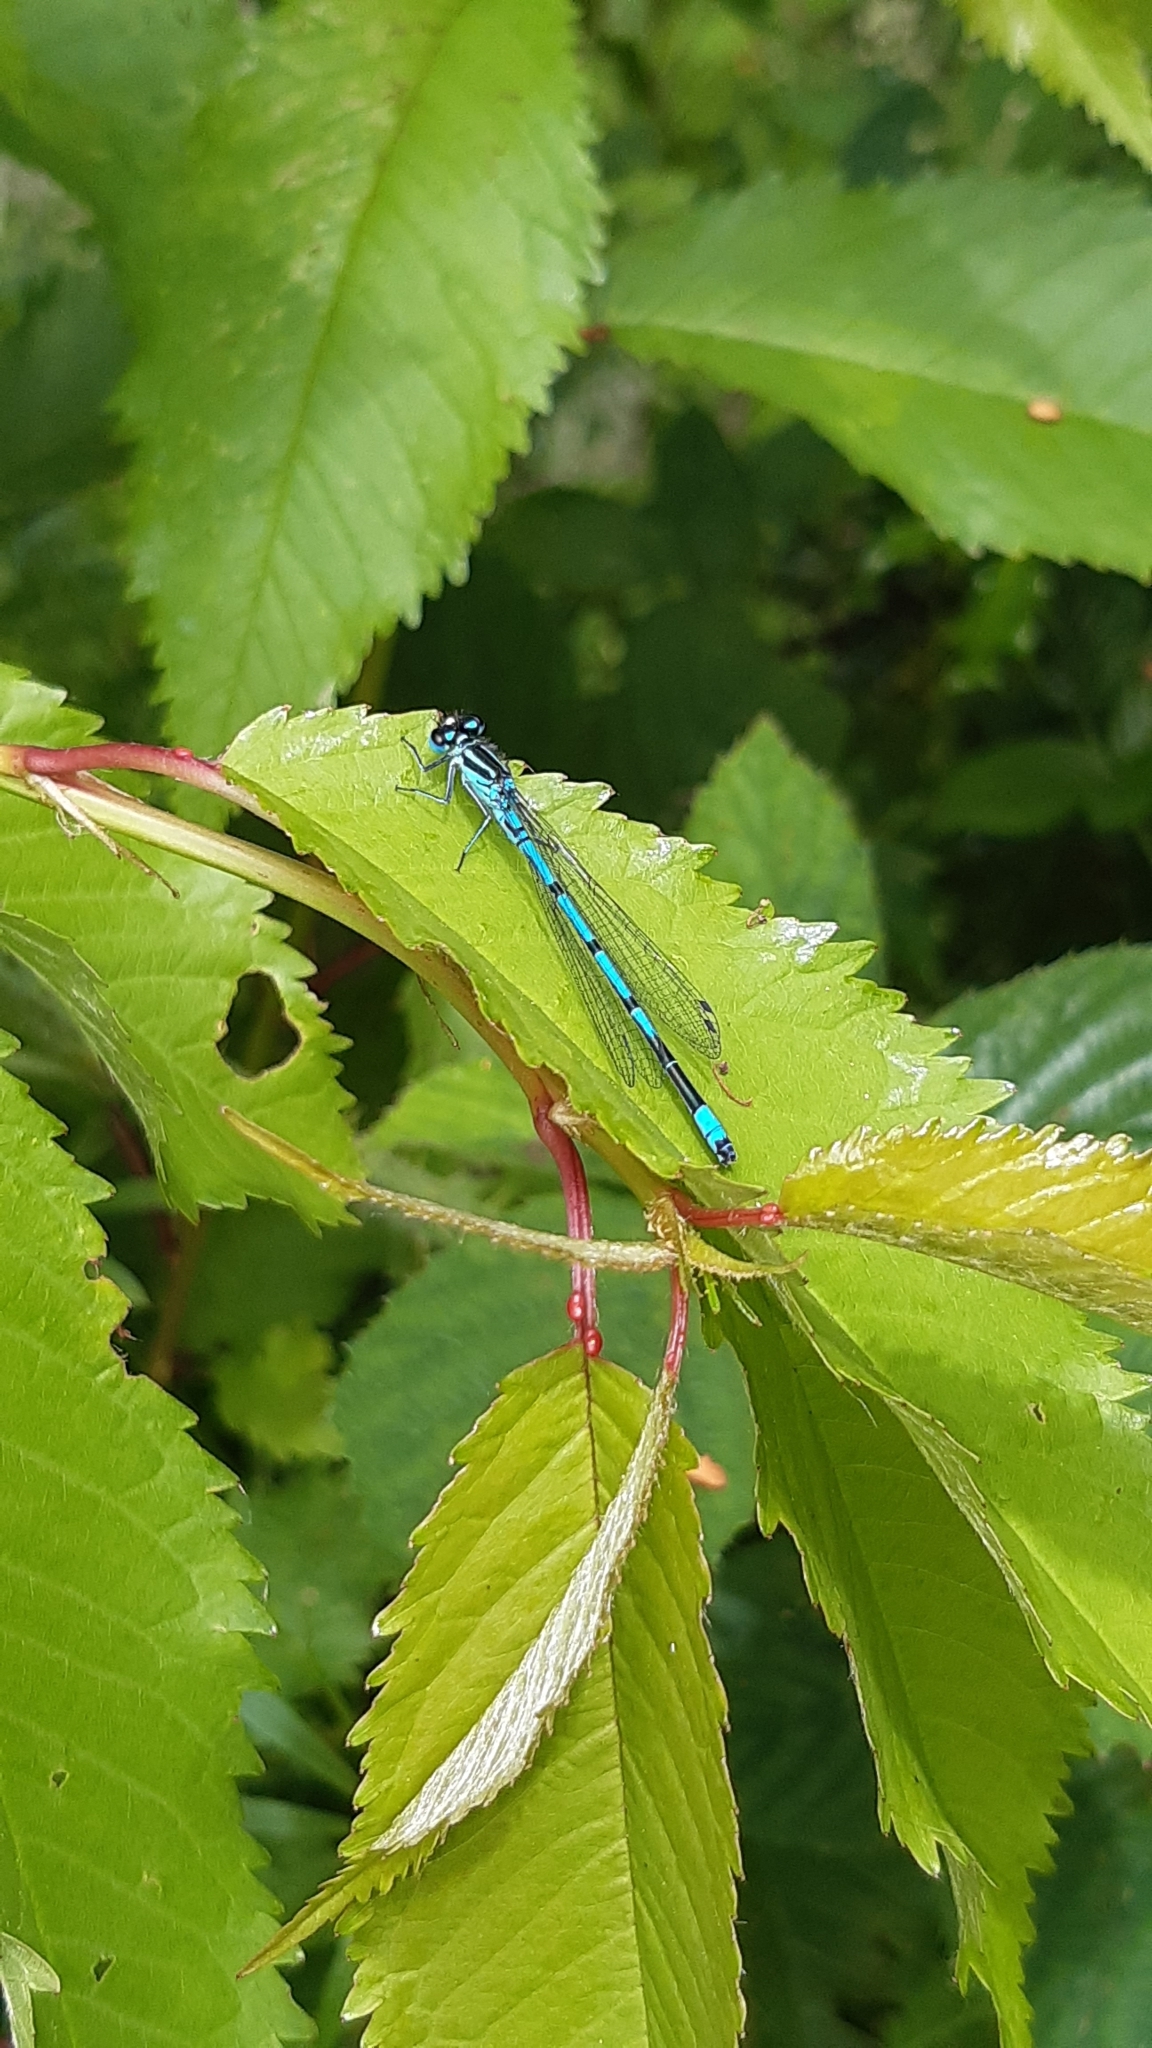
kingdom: Animalia
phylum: Arthropoda
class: Insecta
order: Odonata
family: Coenagrionidae
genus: Coenagrion
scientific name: Coenagrion puella
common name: Azure damselfly
